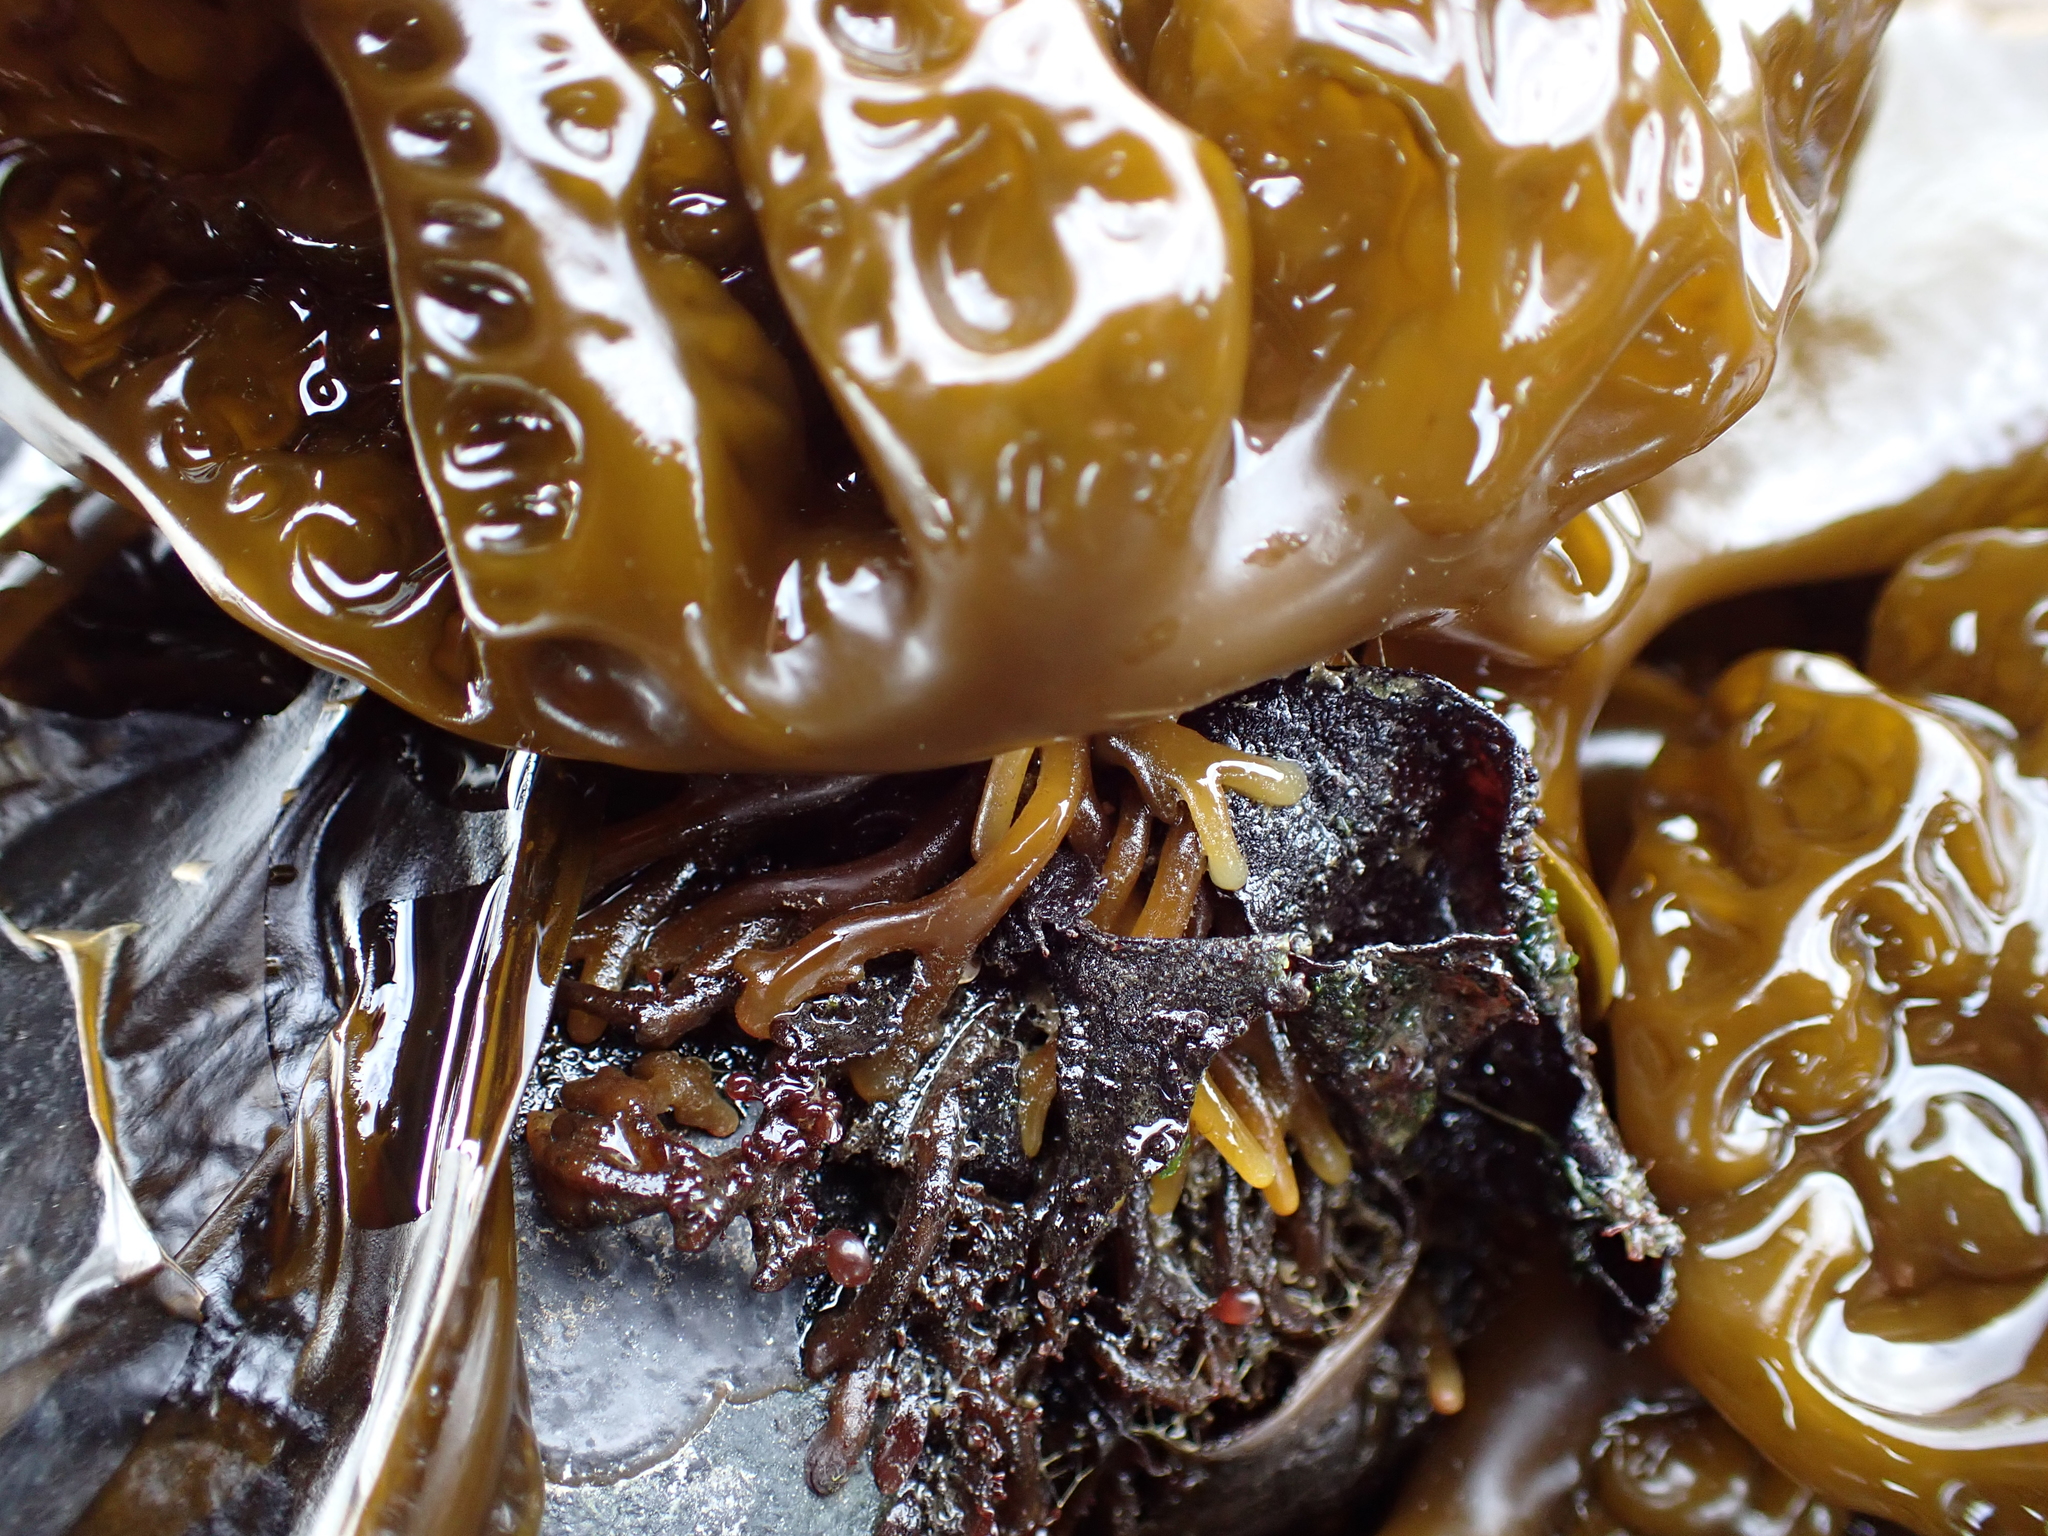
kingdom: Chromista
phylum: Ochrophyta
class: Phaeophyceae
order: Laminariales
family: Laminariaceae
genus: Hedophyllum
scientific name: Hedophyllum sessile
